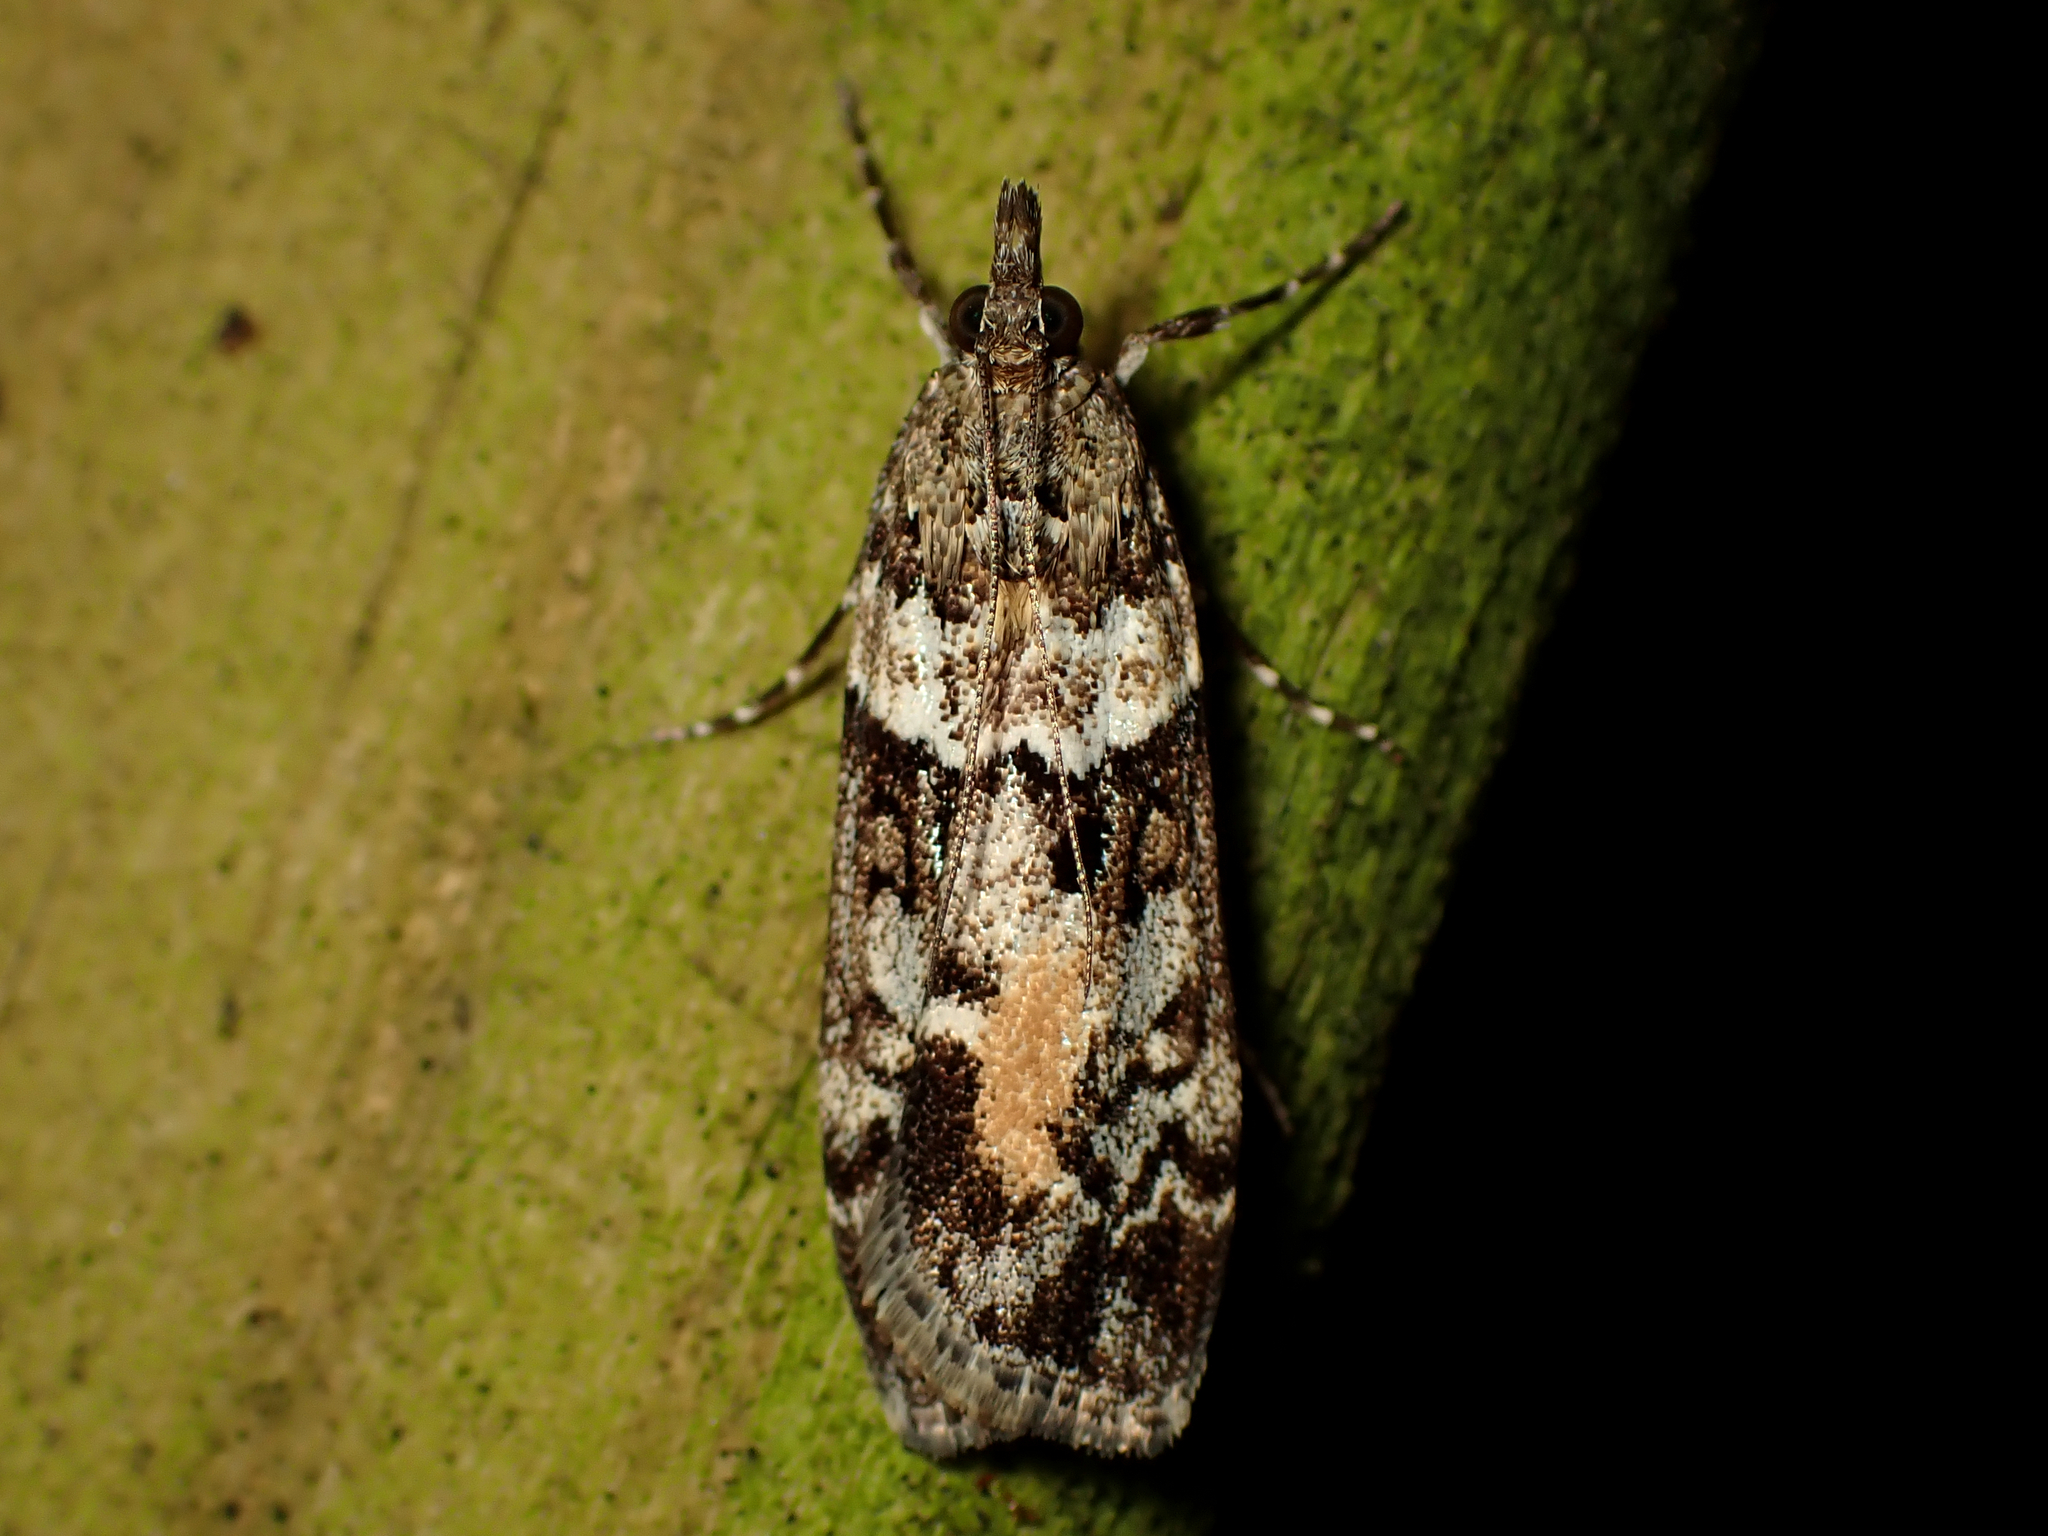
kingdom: Animalia
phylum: Arthropoda
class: Insecta
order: Lepidoptera
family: Crambidae
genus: Eudonia
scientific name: Eudonia submarginalis
